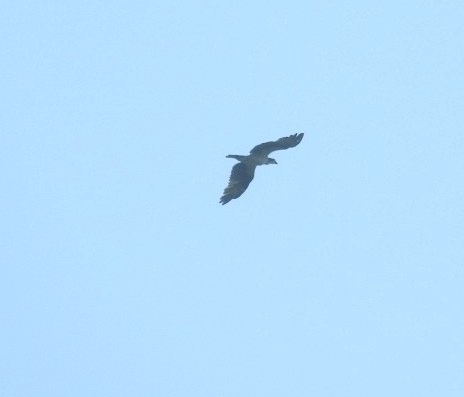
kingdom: Animalia
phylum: Chordata
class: Aves
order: Accipitriformes
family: Pandionidae
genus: Pandion
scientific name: Pandion haliaetus
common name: Osprey
